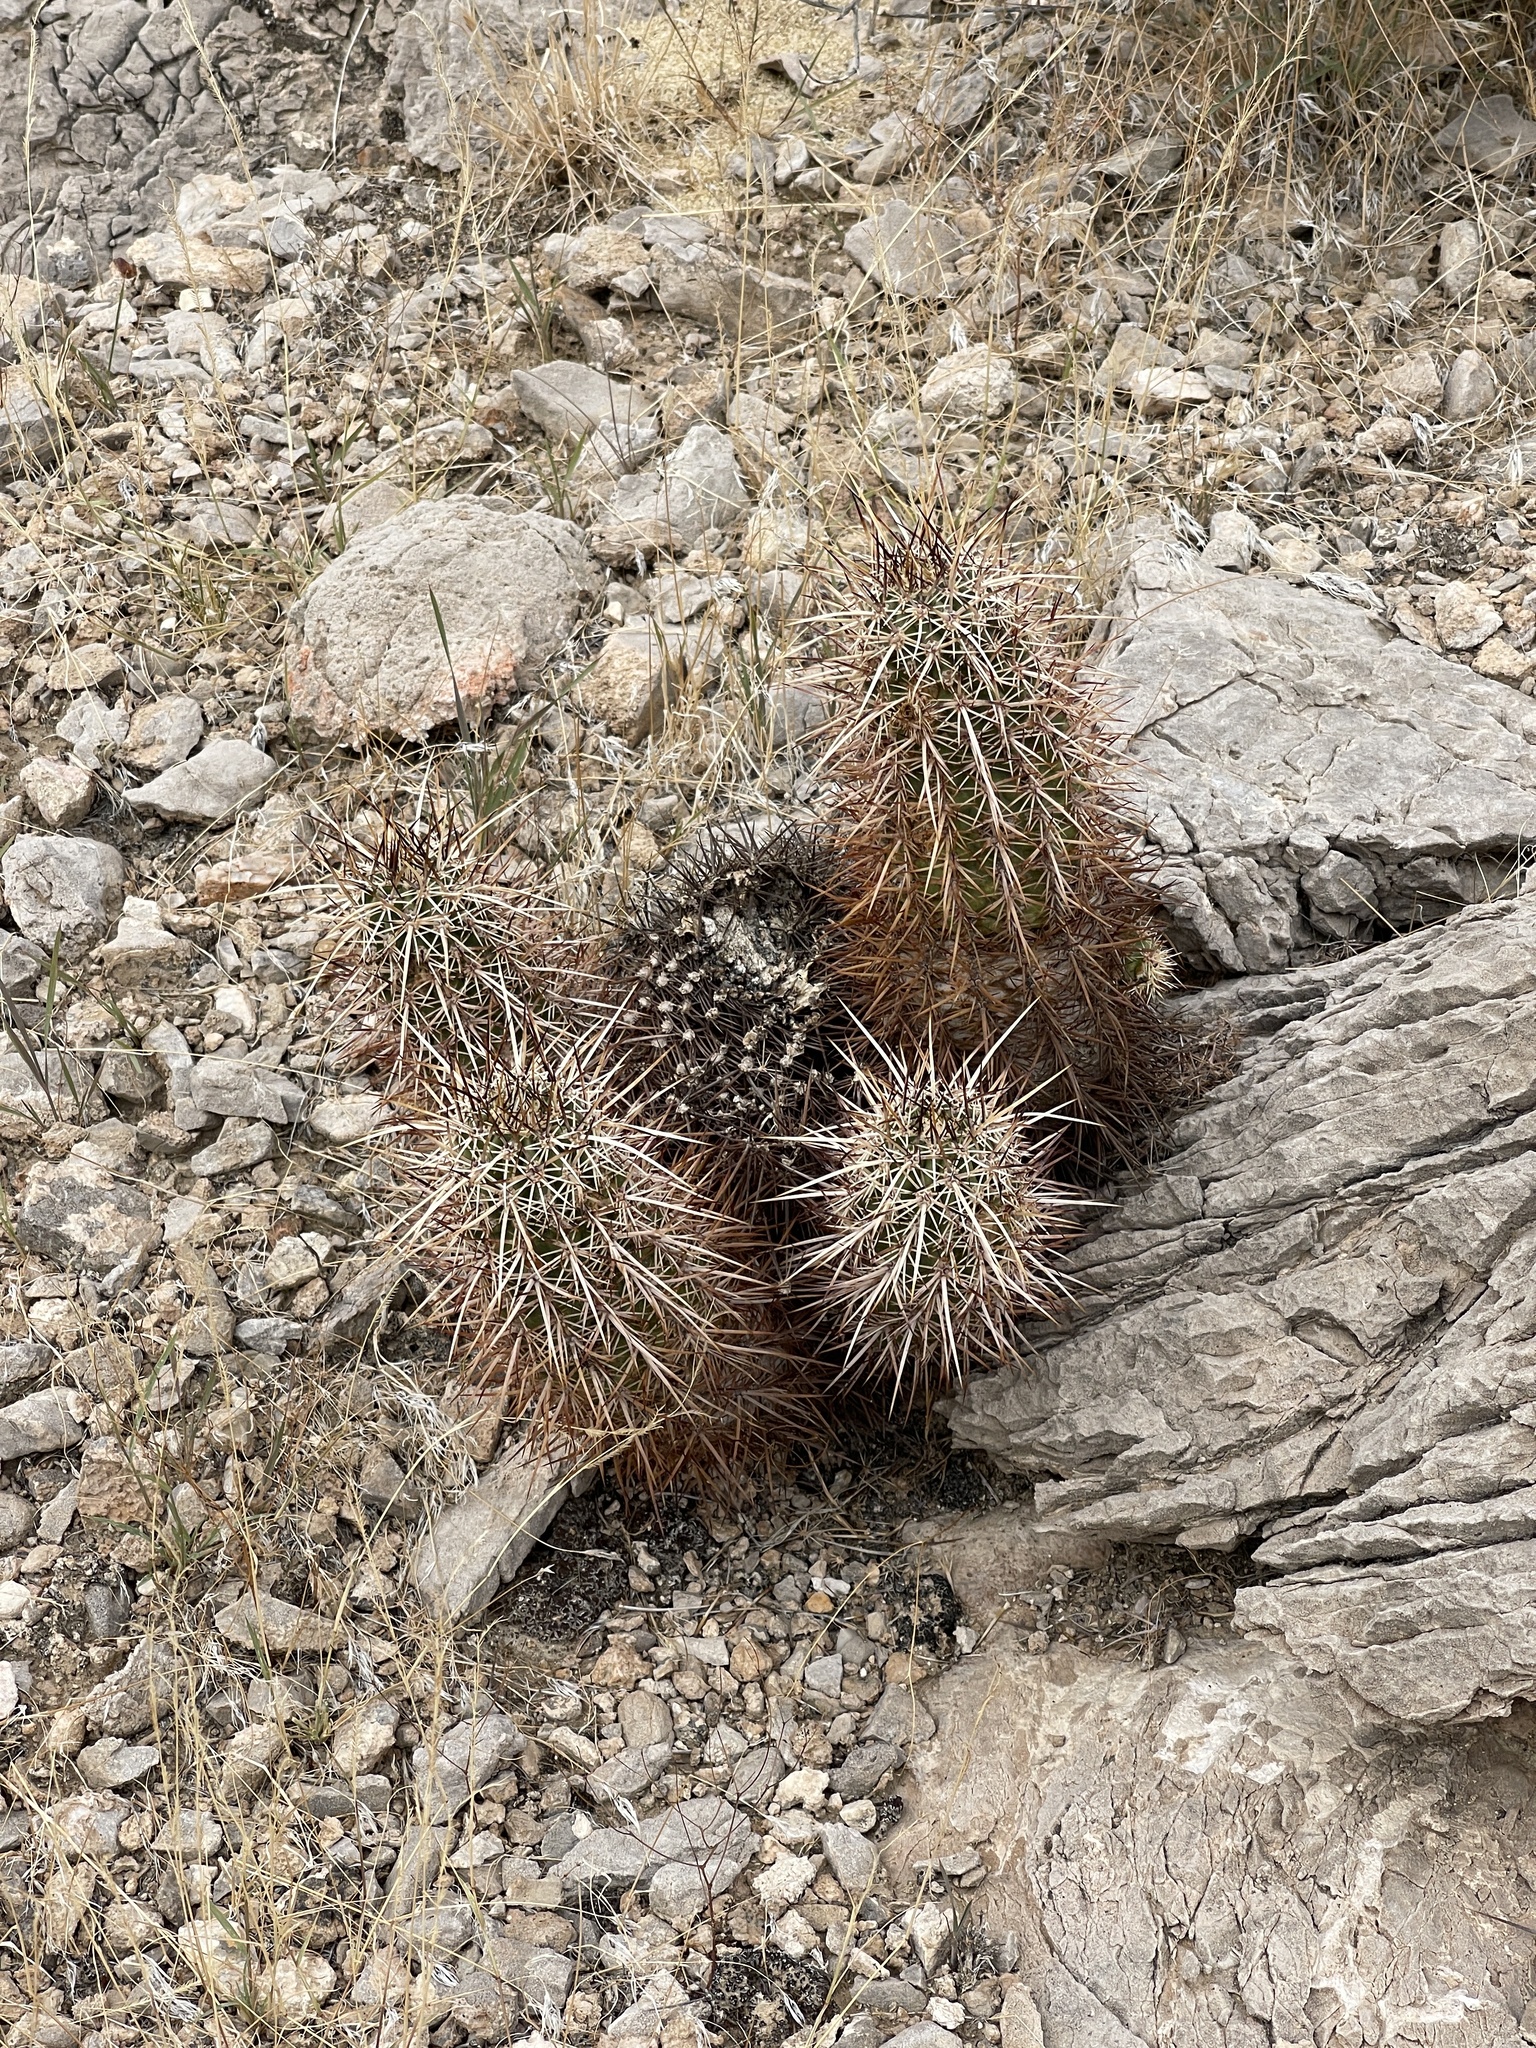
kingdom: Plantae
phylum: Tracheophyta
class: Magnoliopsida
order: Caryophyllales
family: Cactaceae
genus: Echinocereus
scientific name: Echinocereus engelmannii
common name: Engelmann's hedgehog cactus
